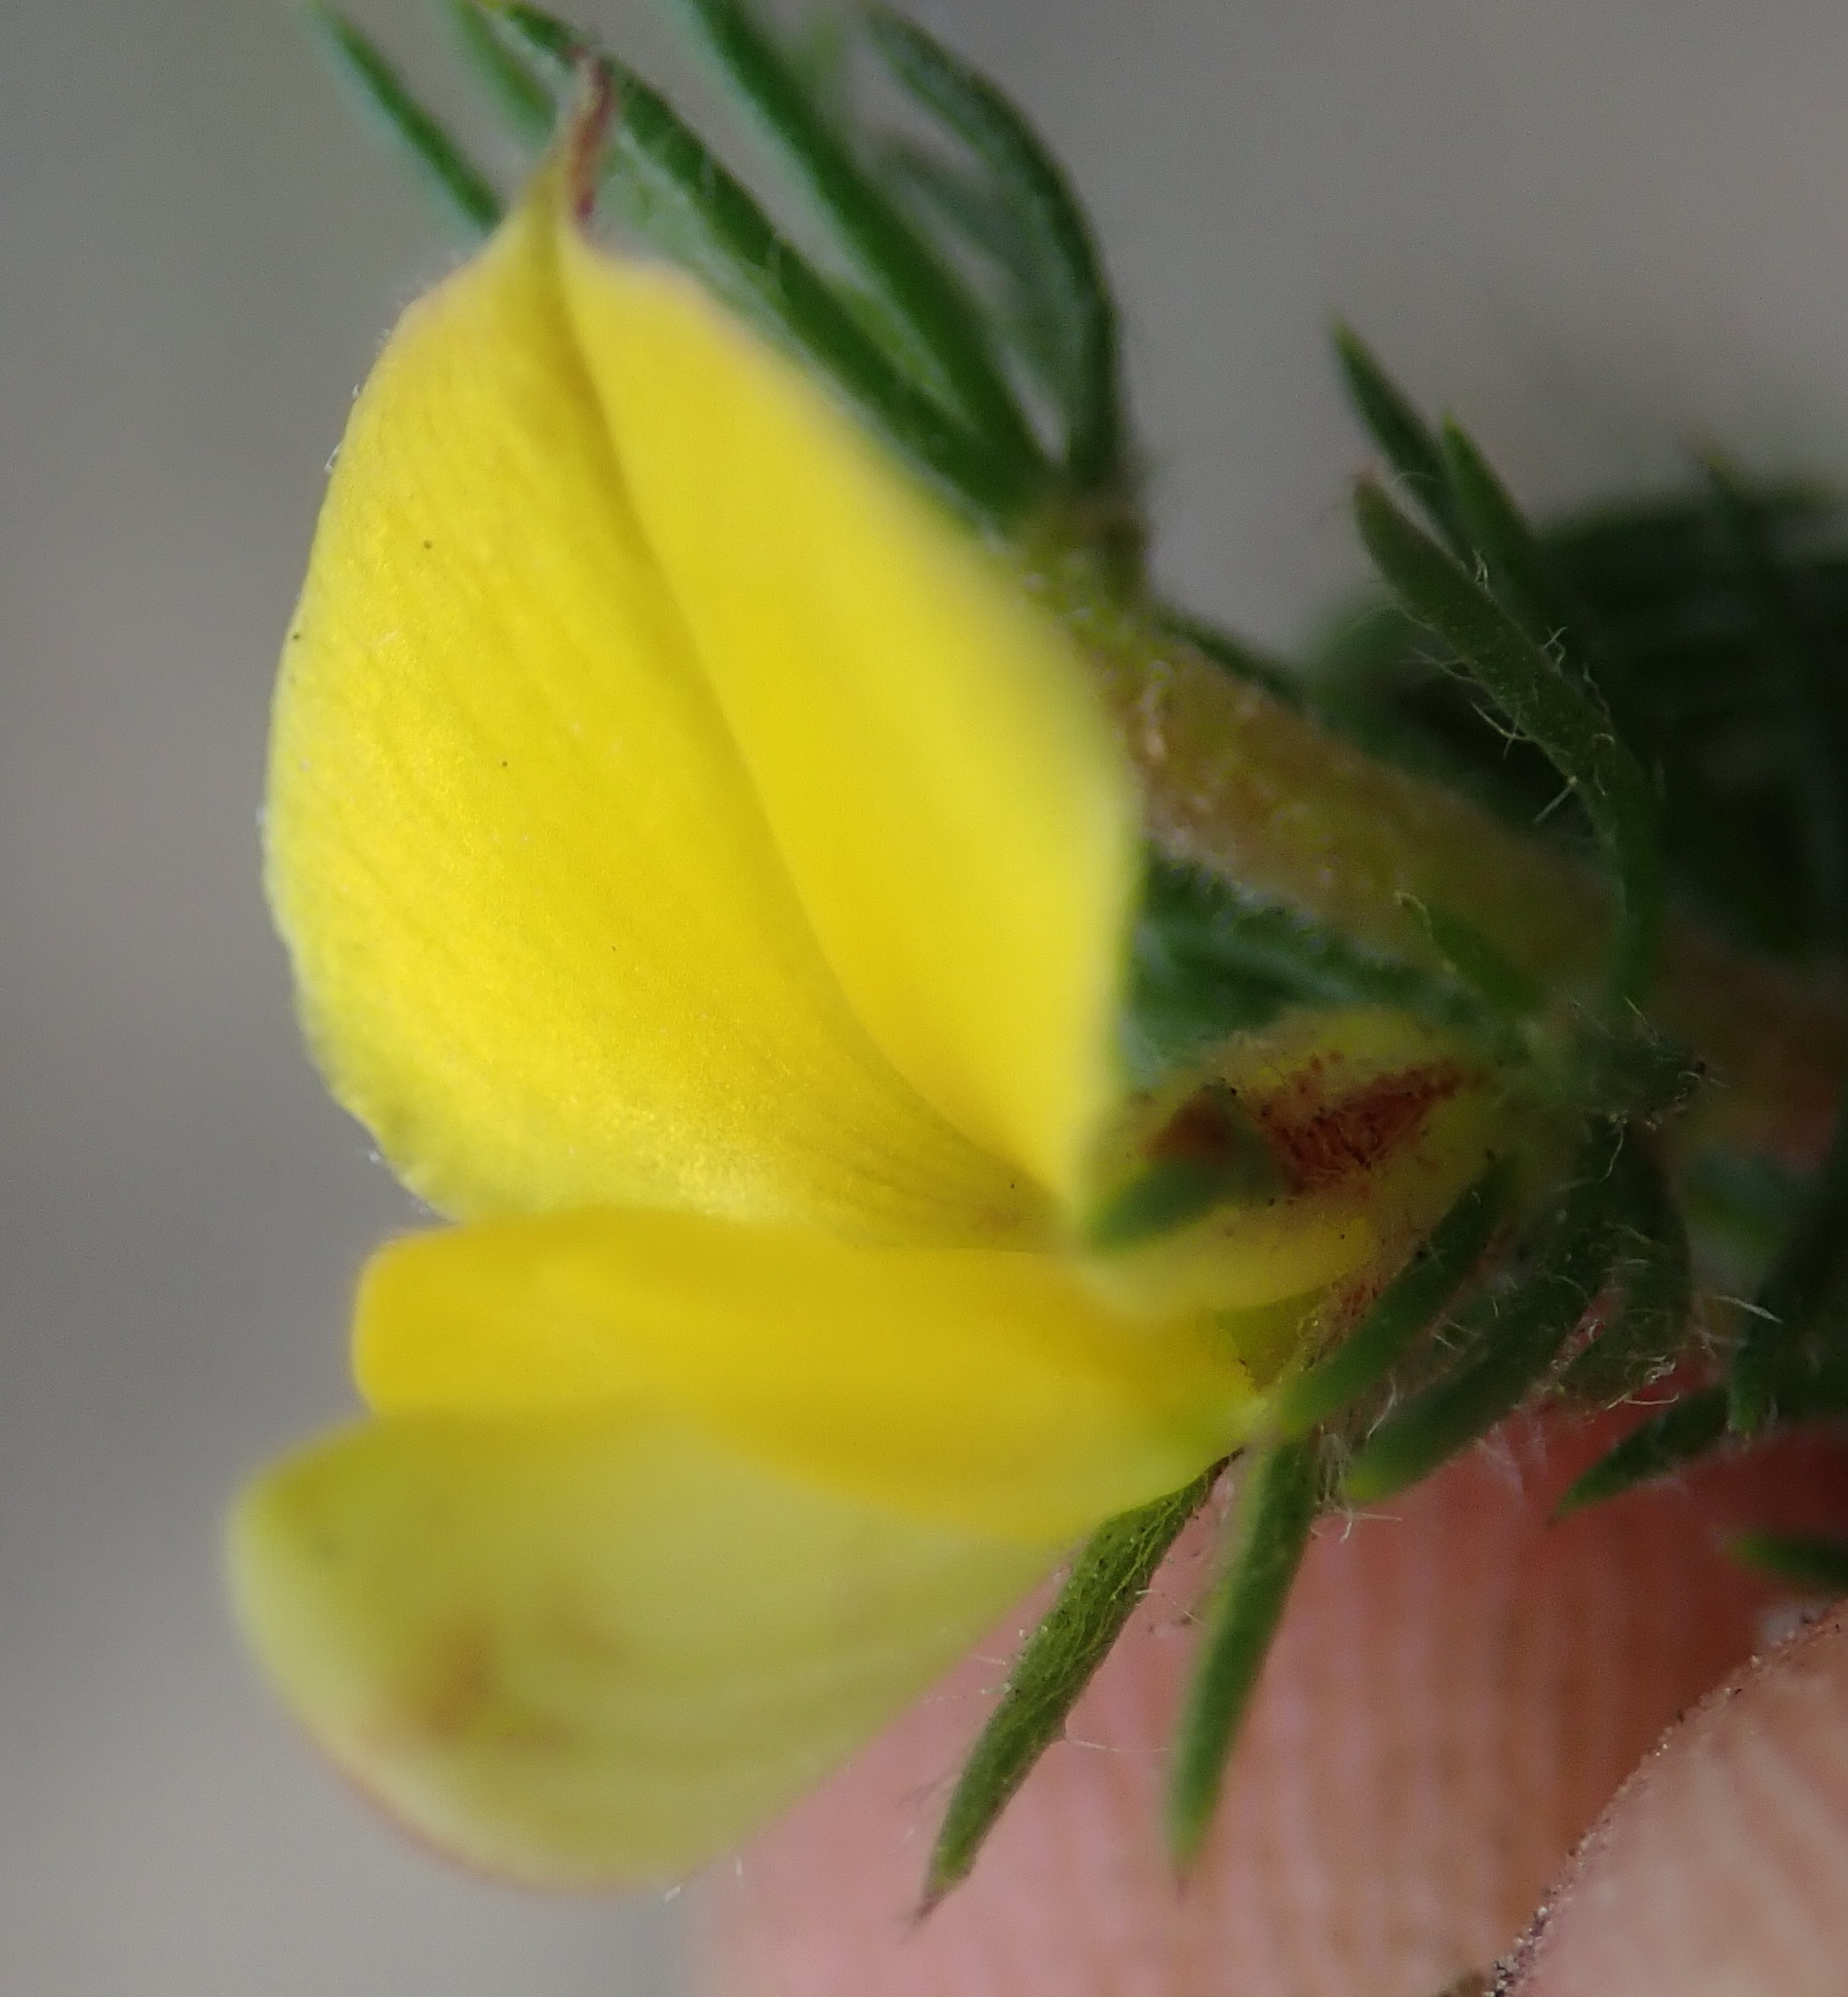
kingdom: Plantae
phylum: Tracheophyta
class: Magnoliopsida
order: Fabales
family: Fabaceae
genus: Aspalathus
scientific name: Aspalathus asparagoides
